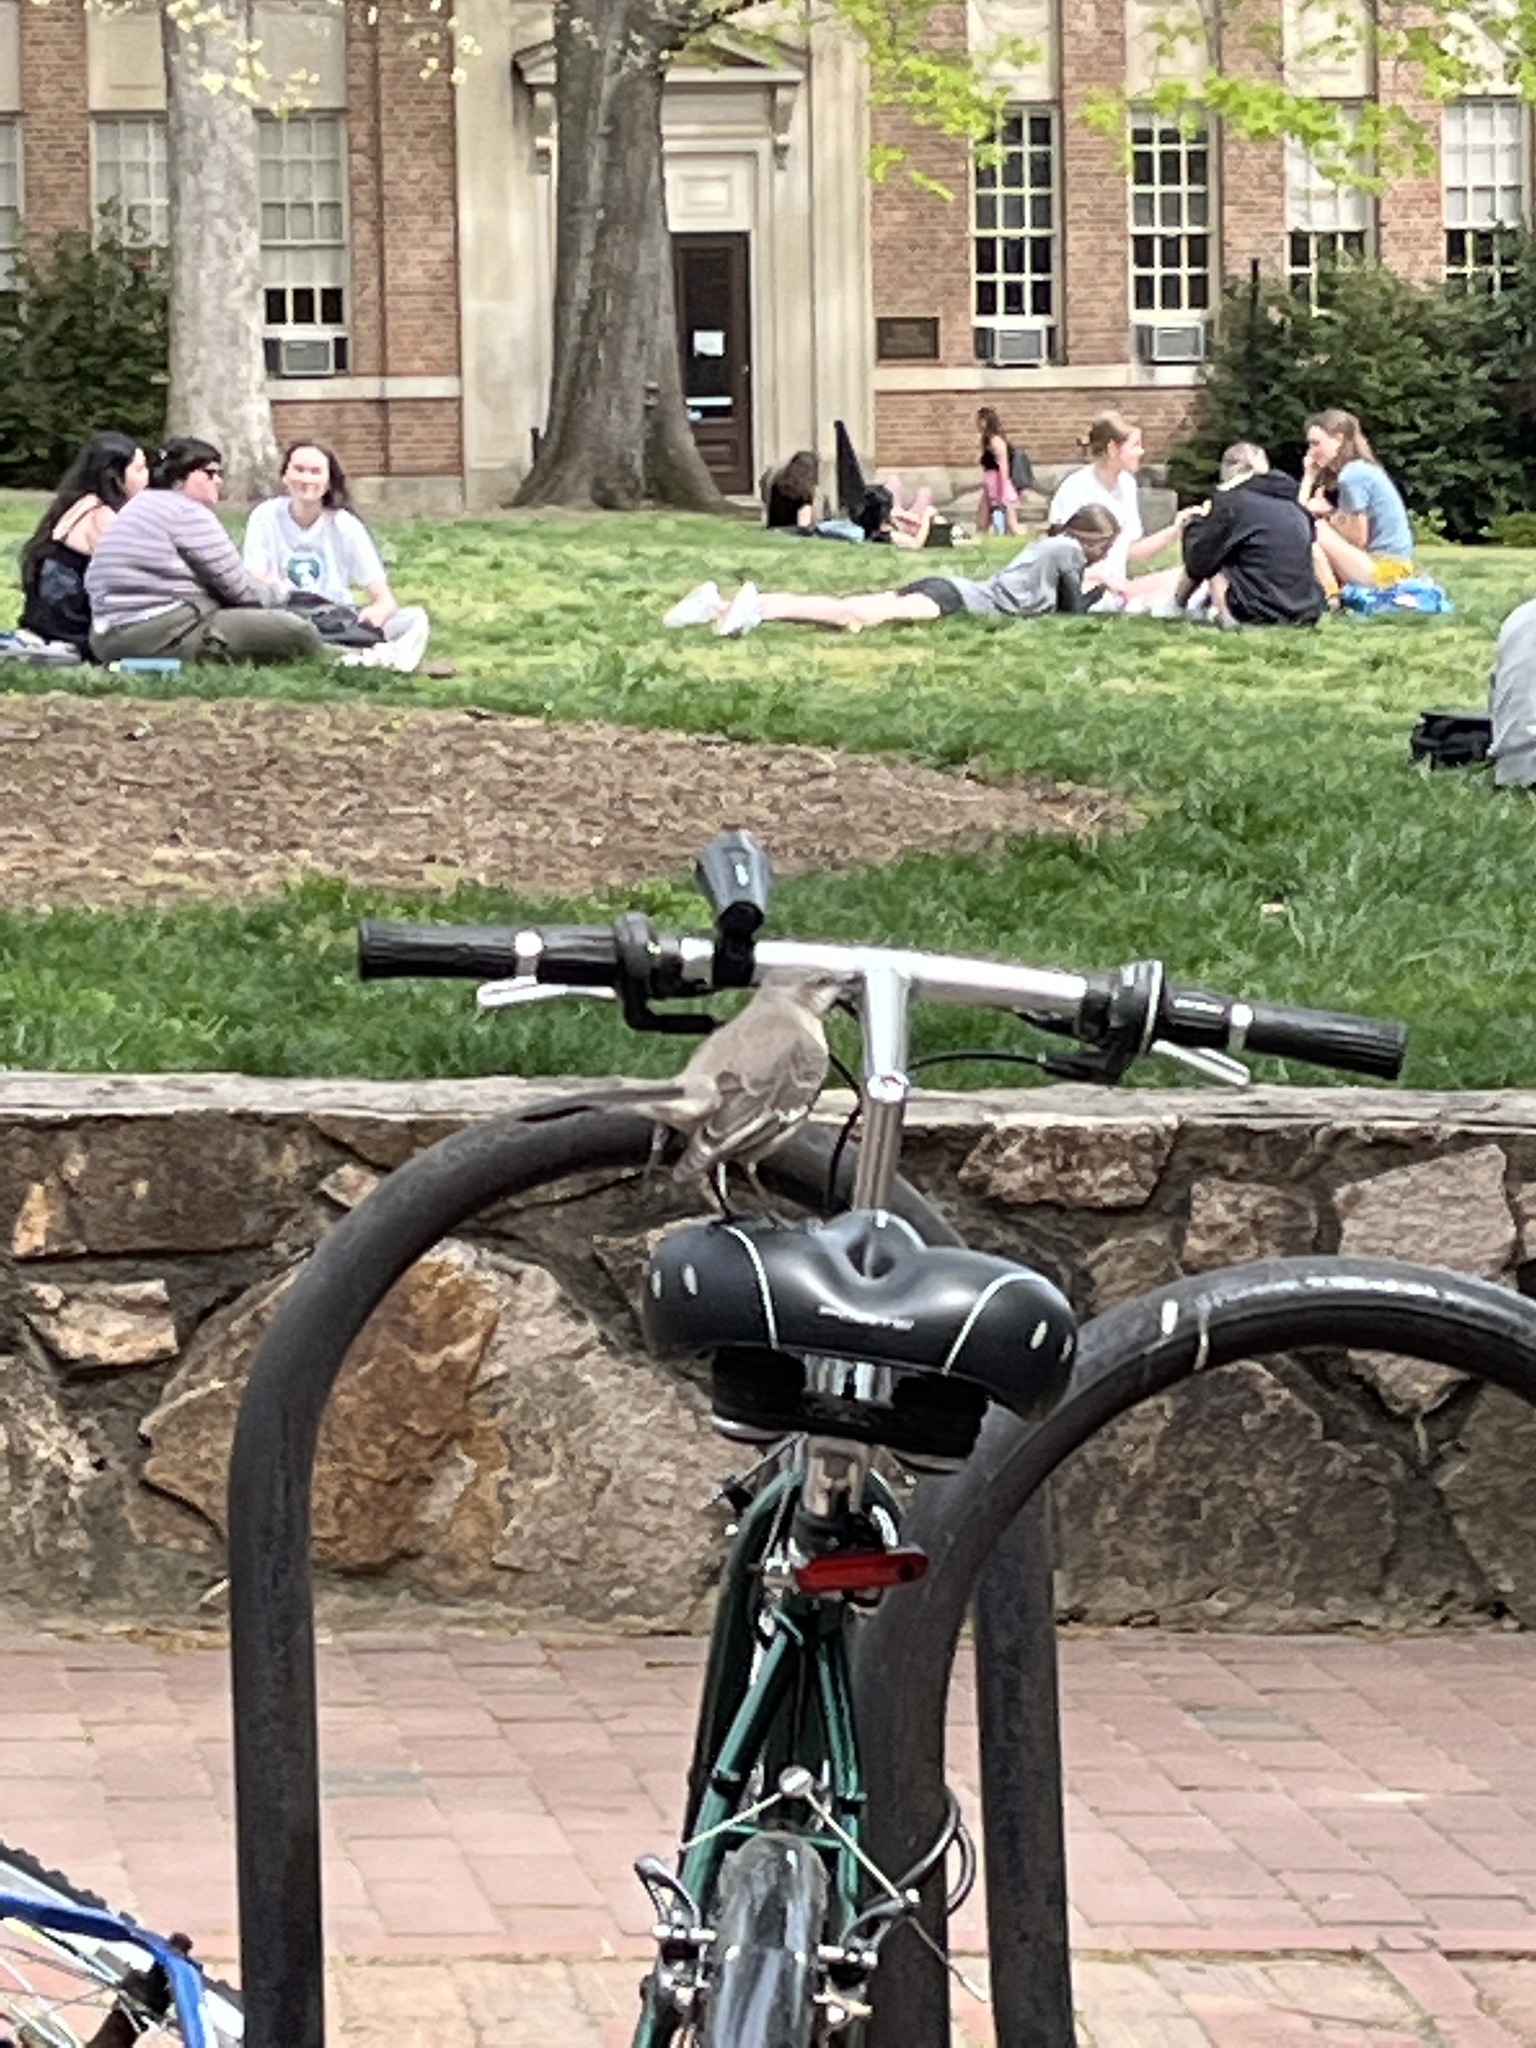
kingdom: Animalia
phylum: Chordata
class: Aves
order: Passeriformes
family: Mimidae
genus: Mimus
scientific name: Mimus polyglottos
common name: Northern mockingbird
